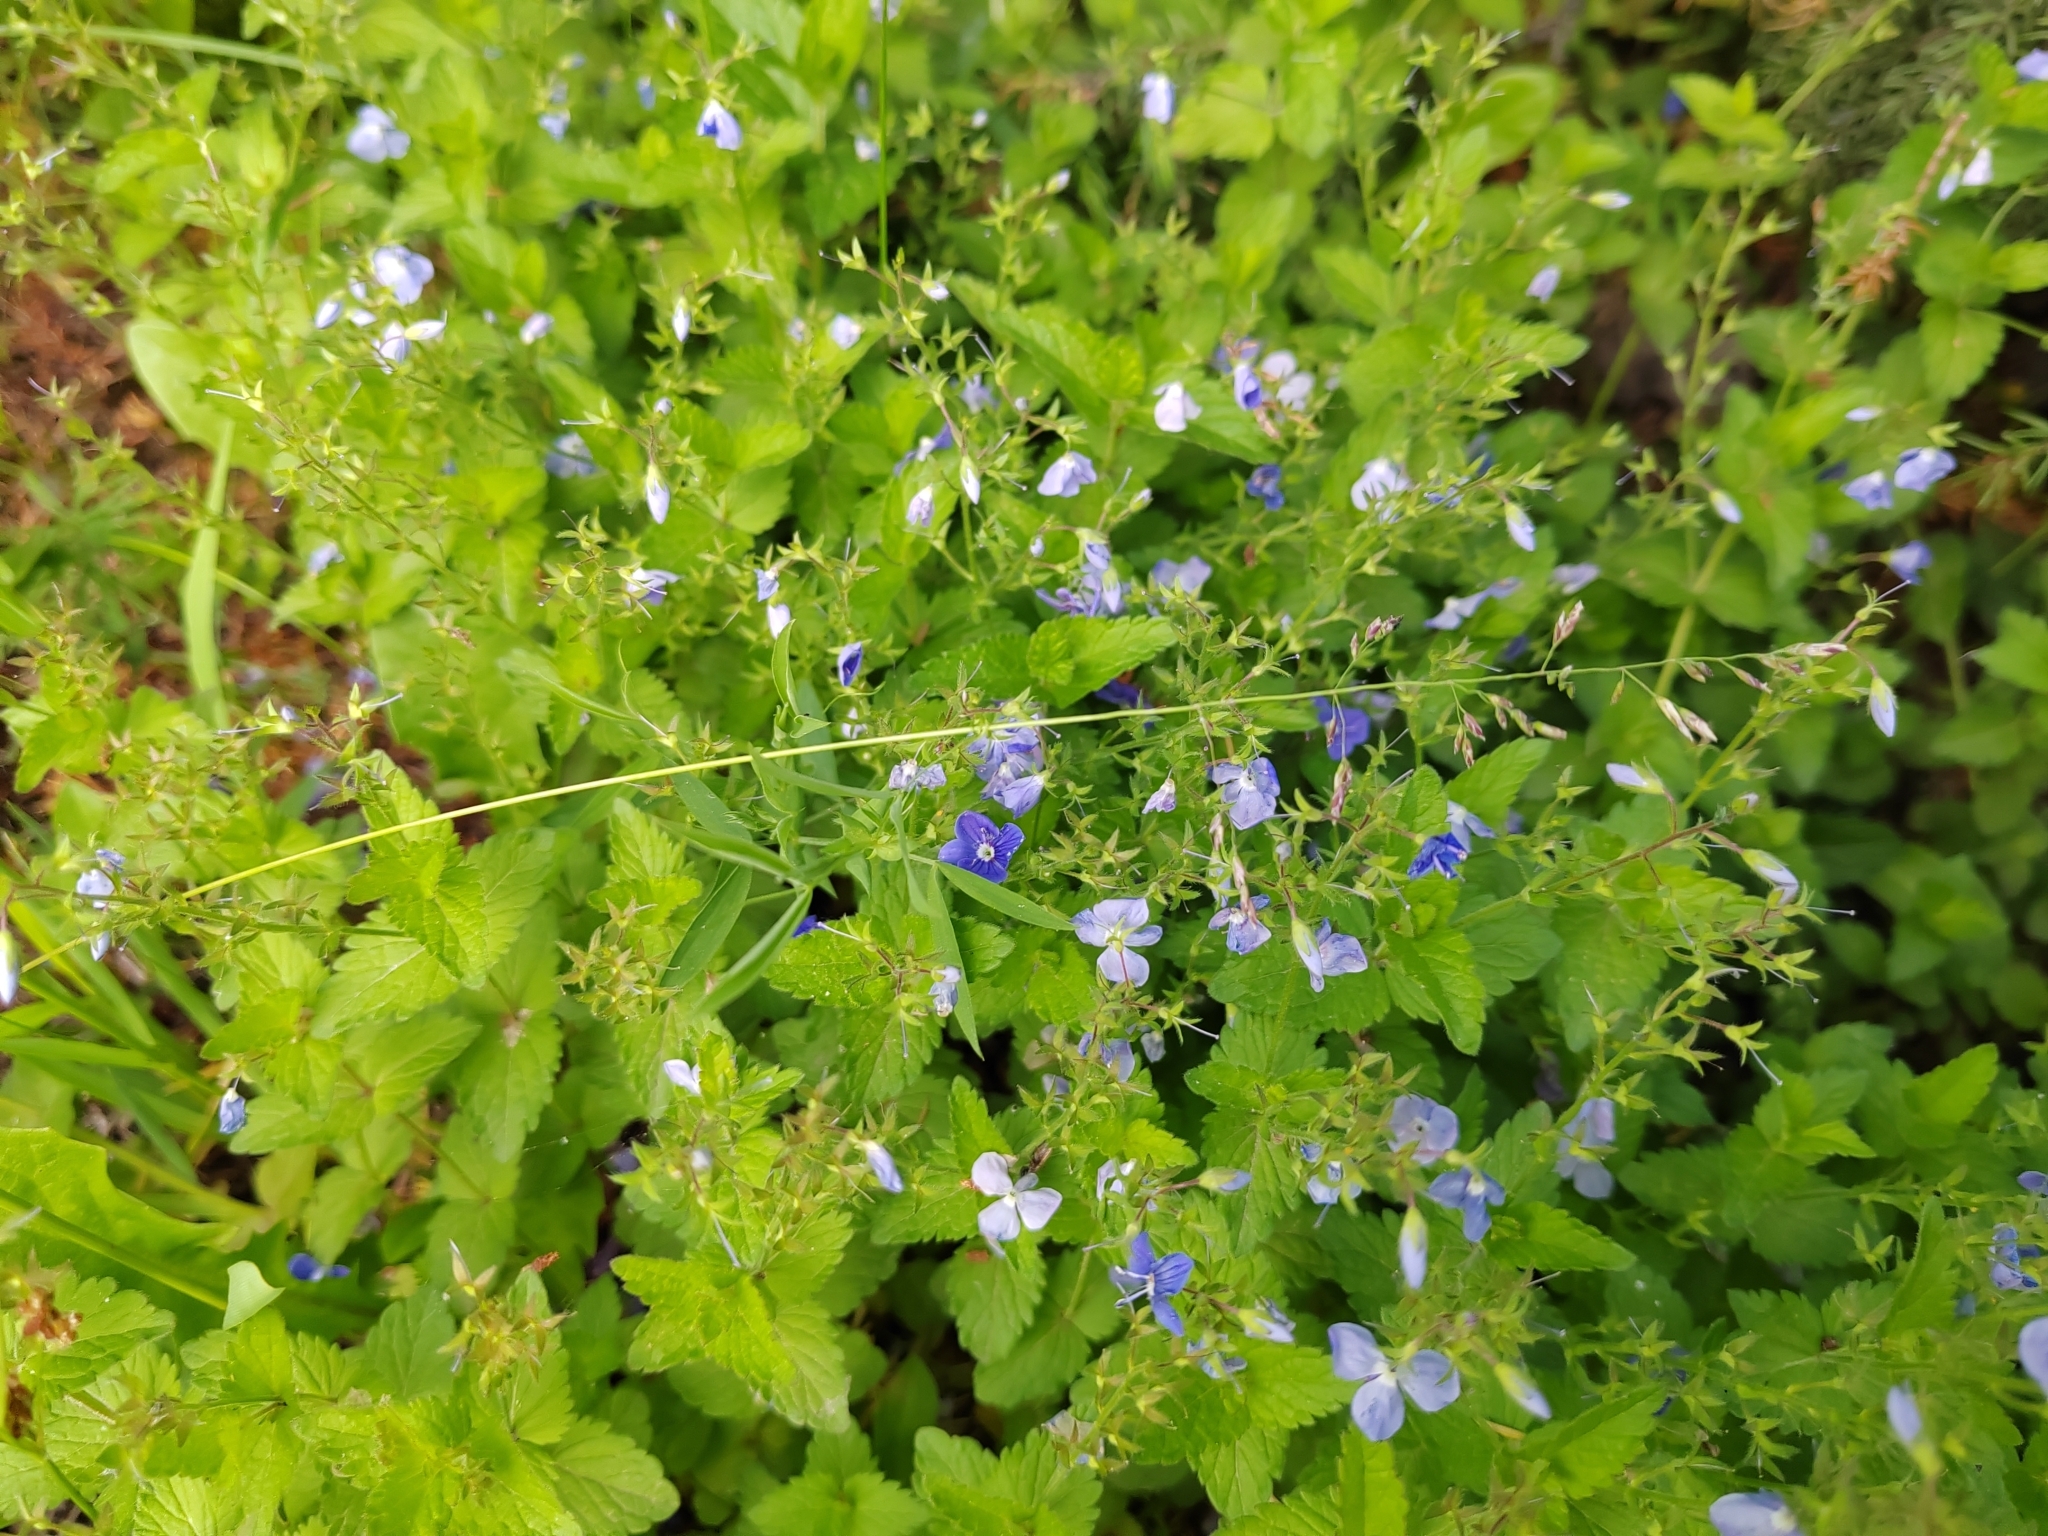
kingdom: Plantae
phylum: Tracheophyta
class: Magnoliopsida
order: Lamiales
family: Plantaginaceae
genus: Veronica
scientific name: Veronica chamaedrys
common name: Germander speedwell
